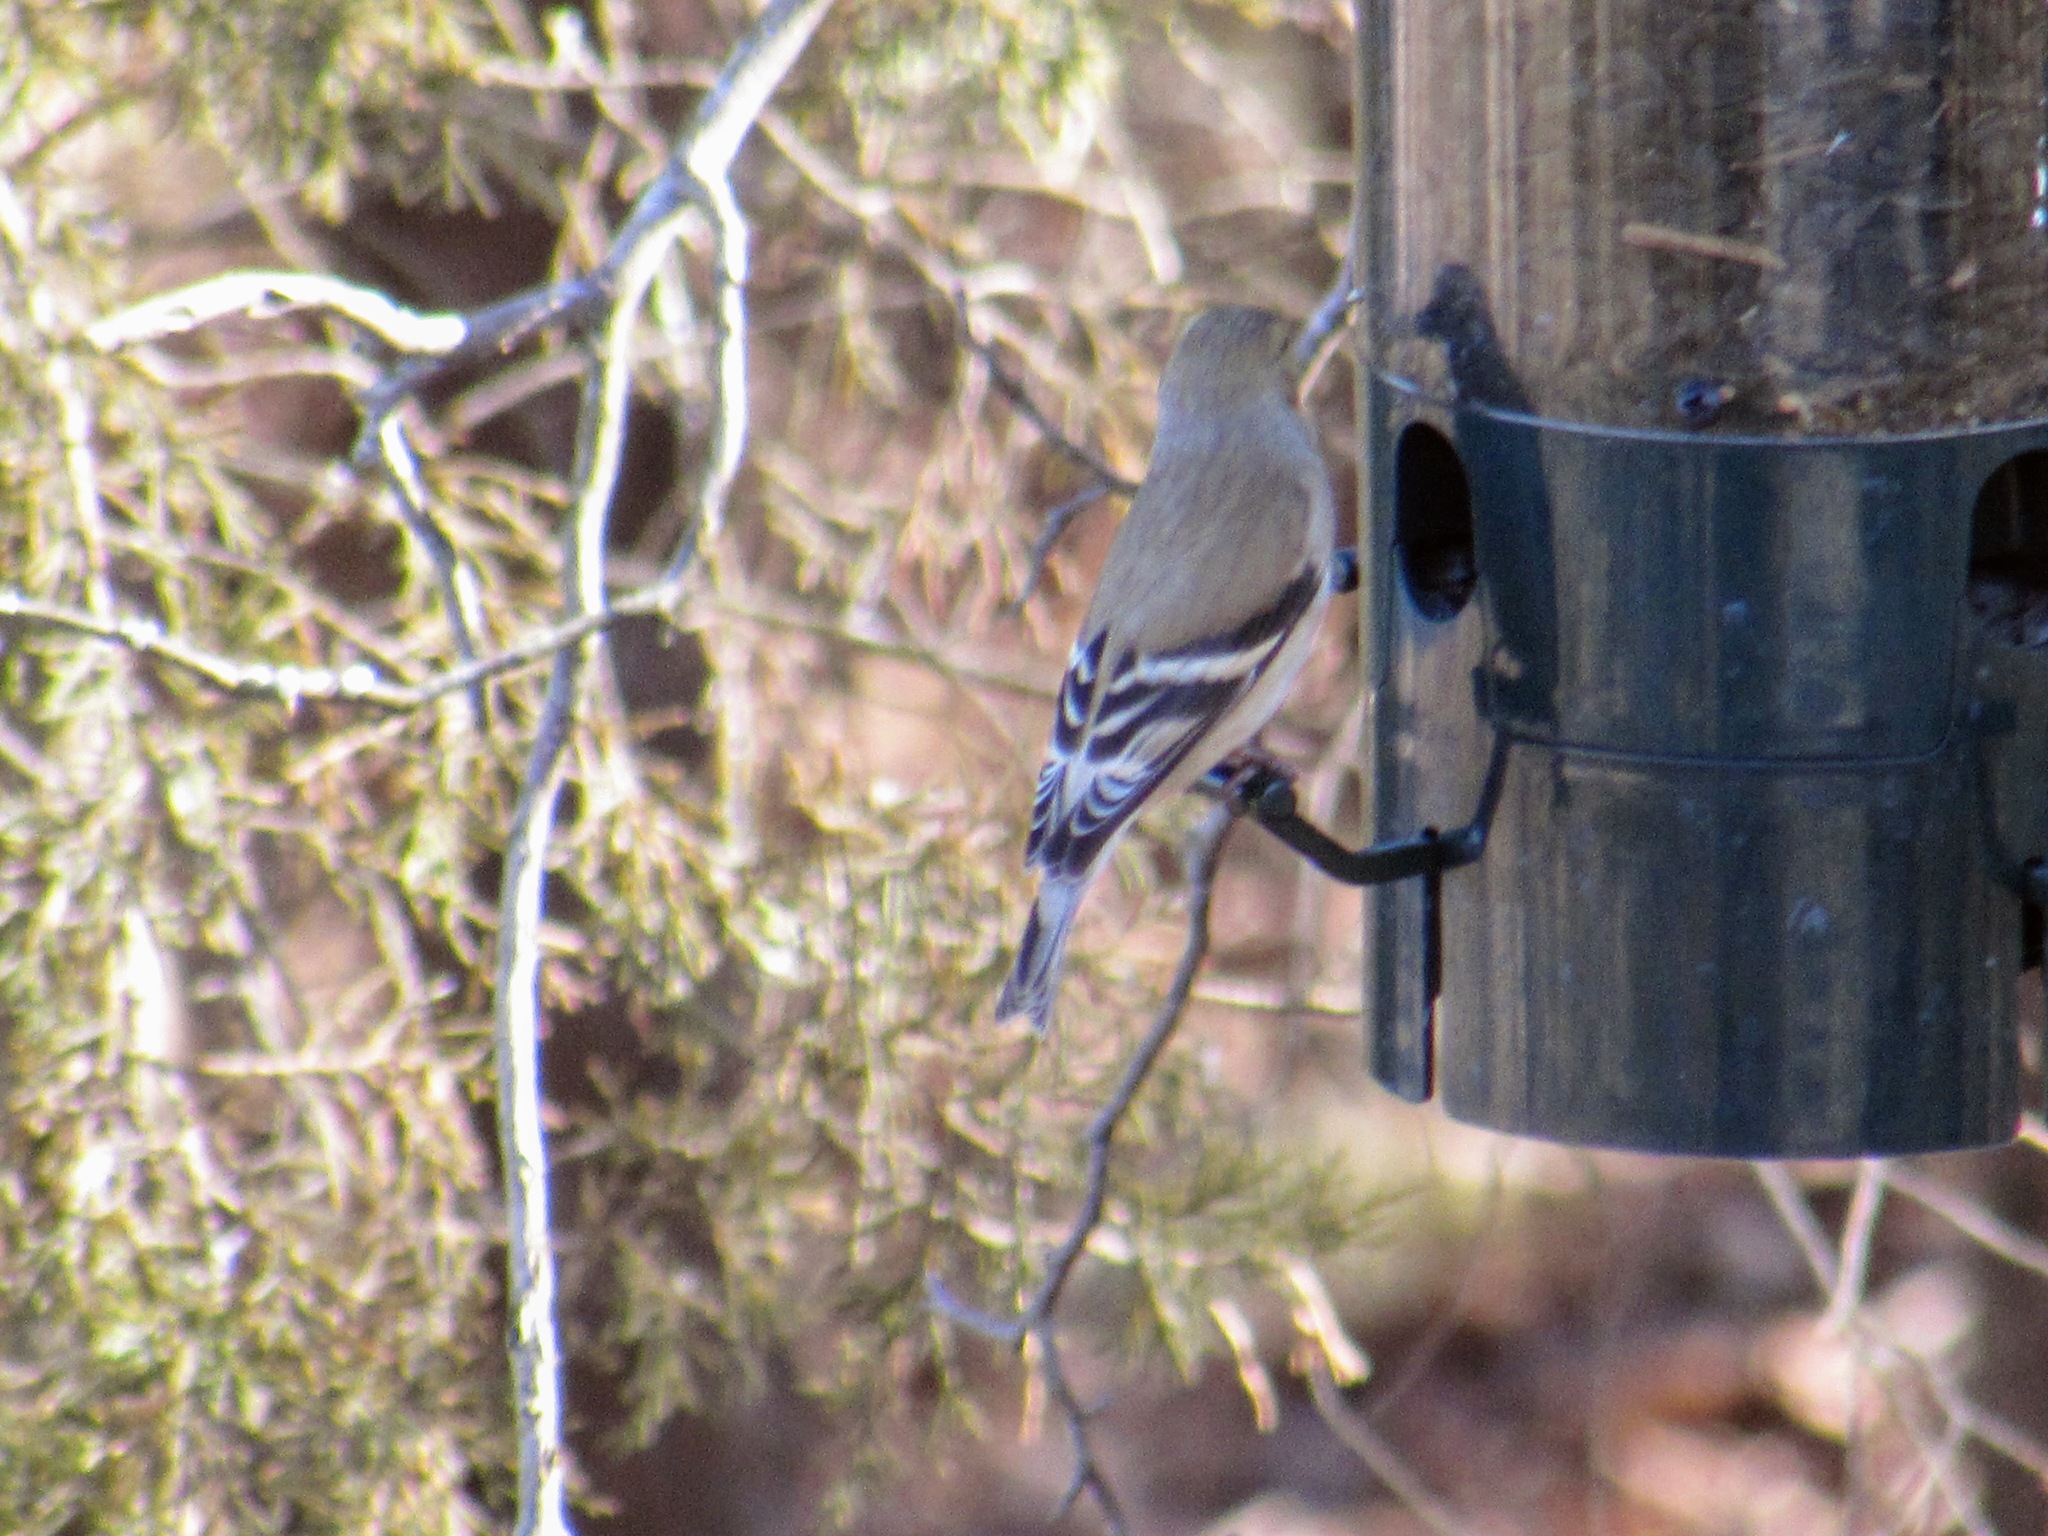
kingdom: Animalia
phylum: Chordata
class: Aves
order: Passeriformes
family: Fringillidae
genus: Spinus
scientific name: Spinus tristis
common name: American goldfinch
